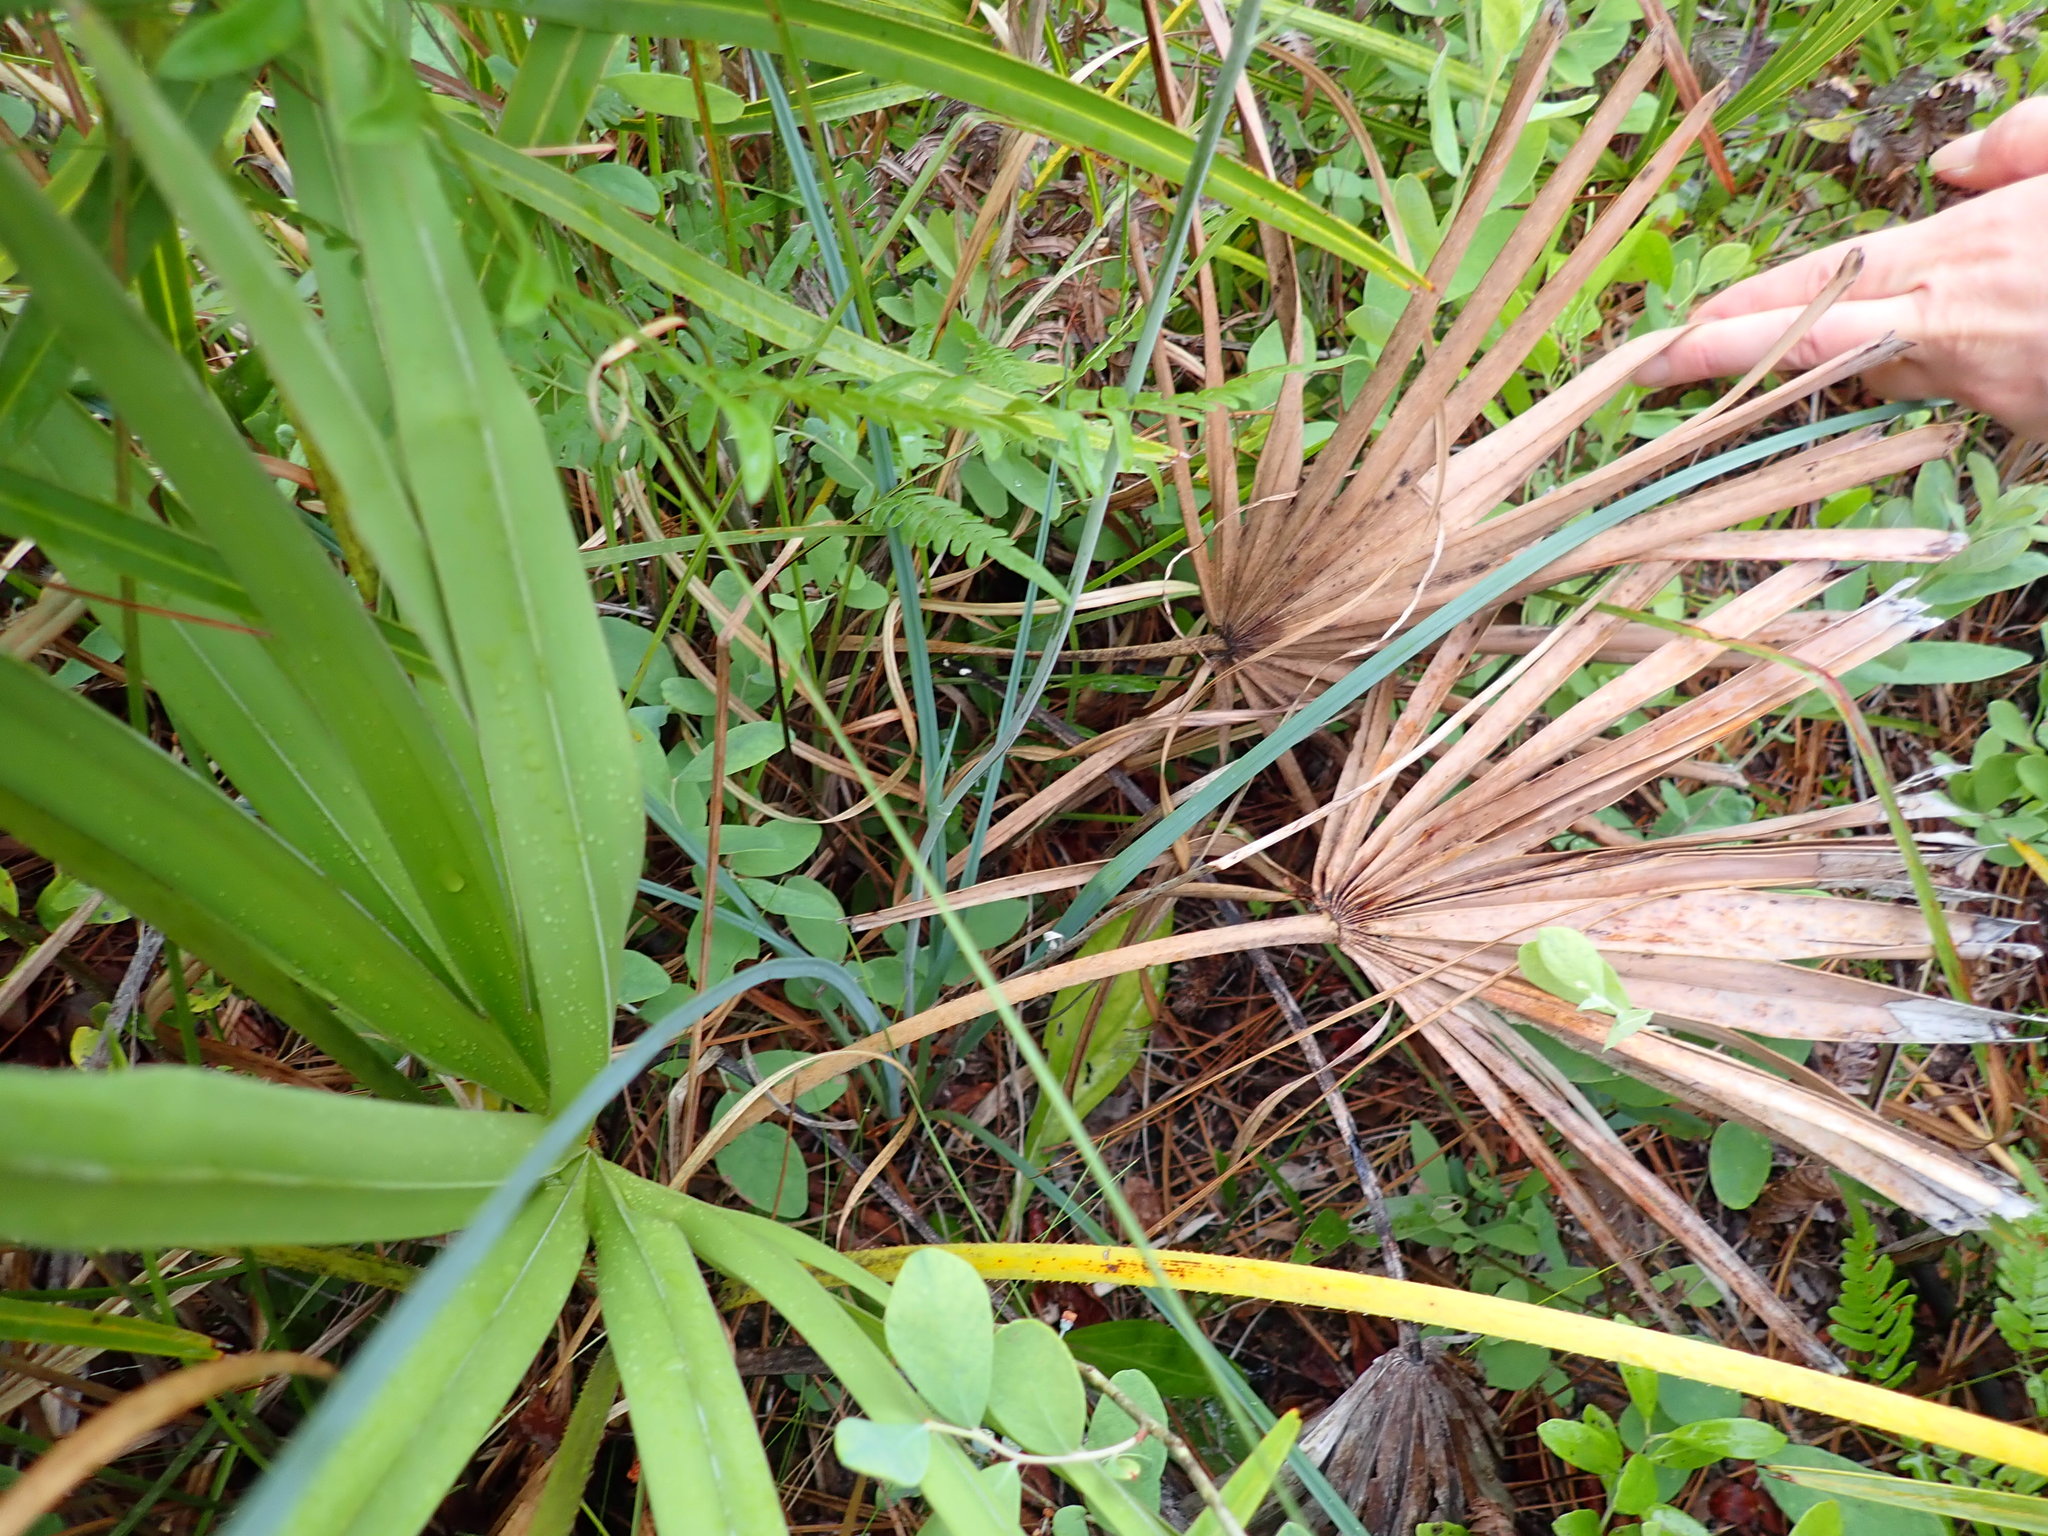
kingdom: Plantae
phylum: Tracheophyta
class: Liliopsida
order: Liliales
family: Melanthiaceae
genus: Stenanthium
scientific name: Stenanthium densum
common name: Crow-poison
